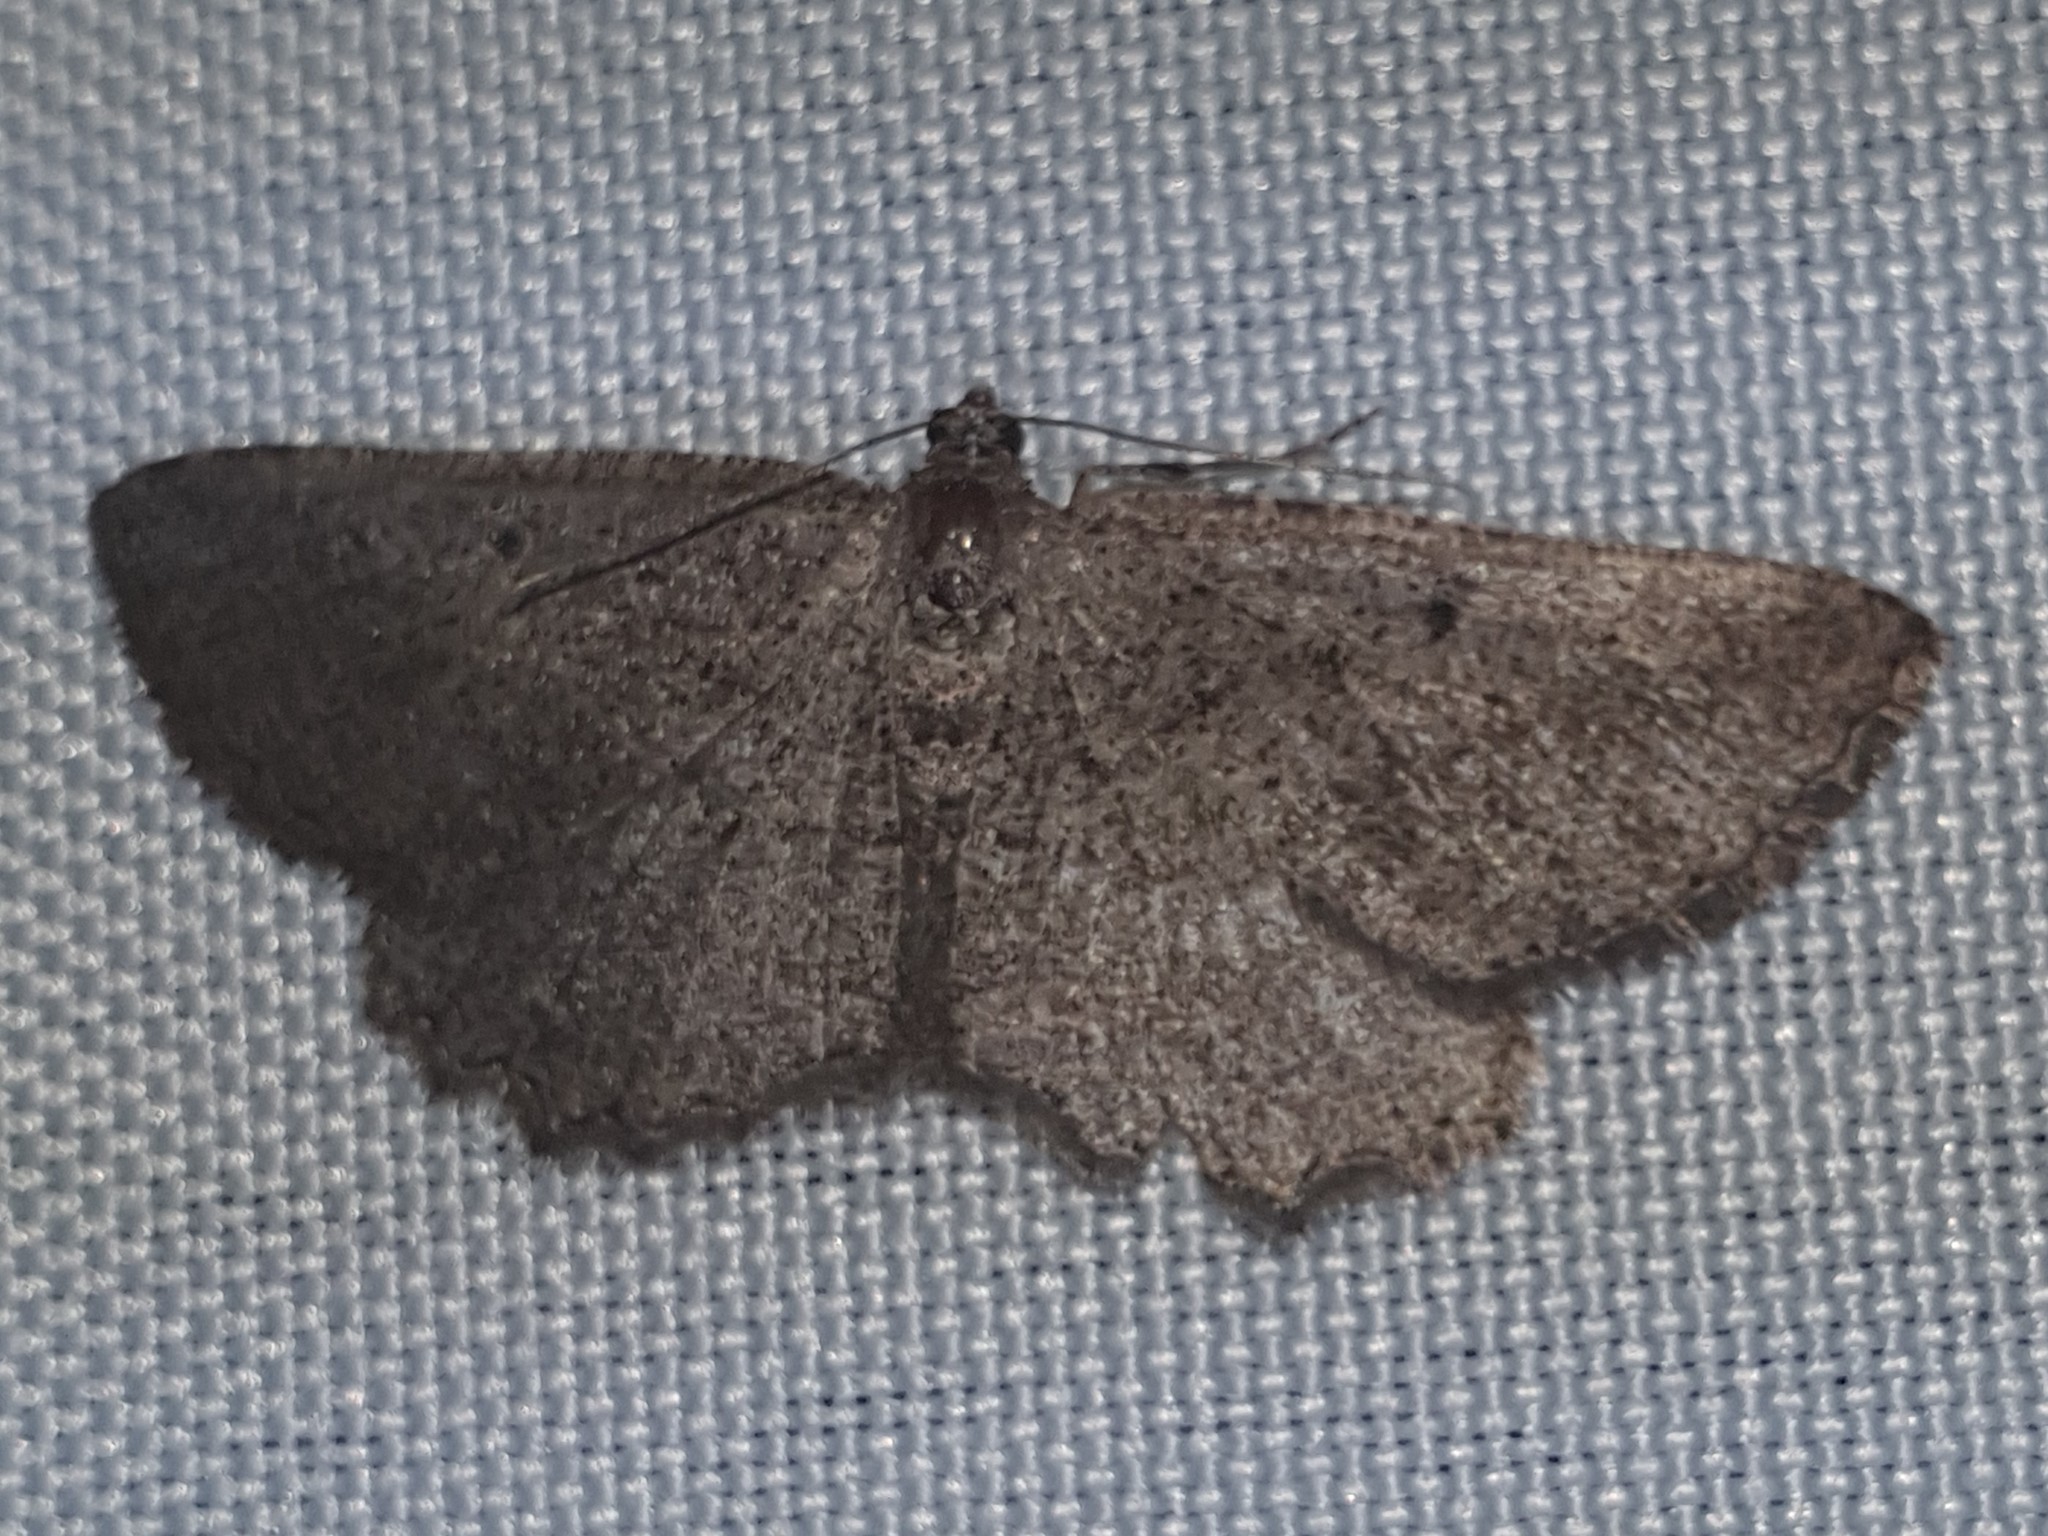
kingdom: Animalia
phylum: Arthropoda
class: Insecta
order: Lepidoptera
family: Geometridae
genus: Rhoptria
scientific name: Rhoptria asperaria
